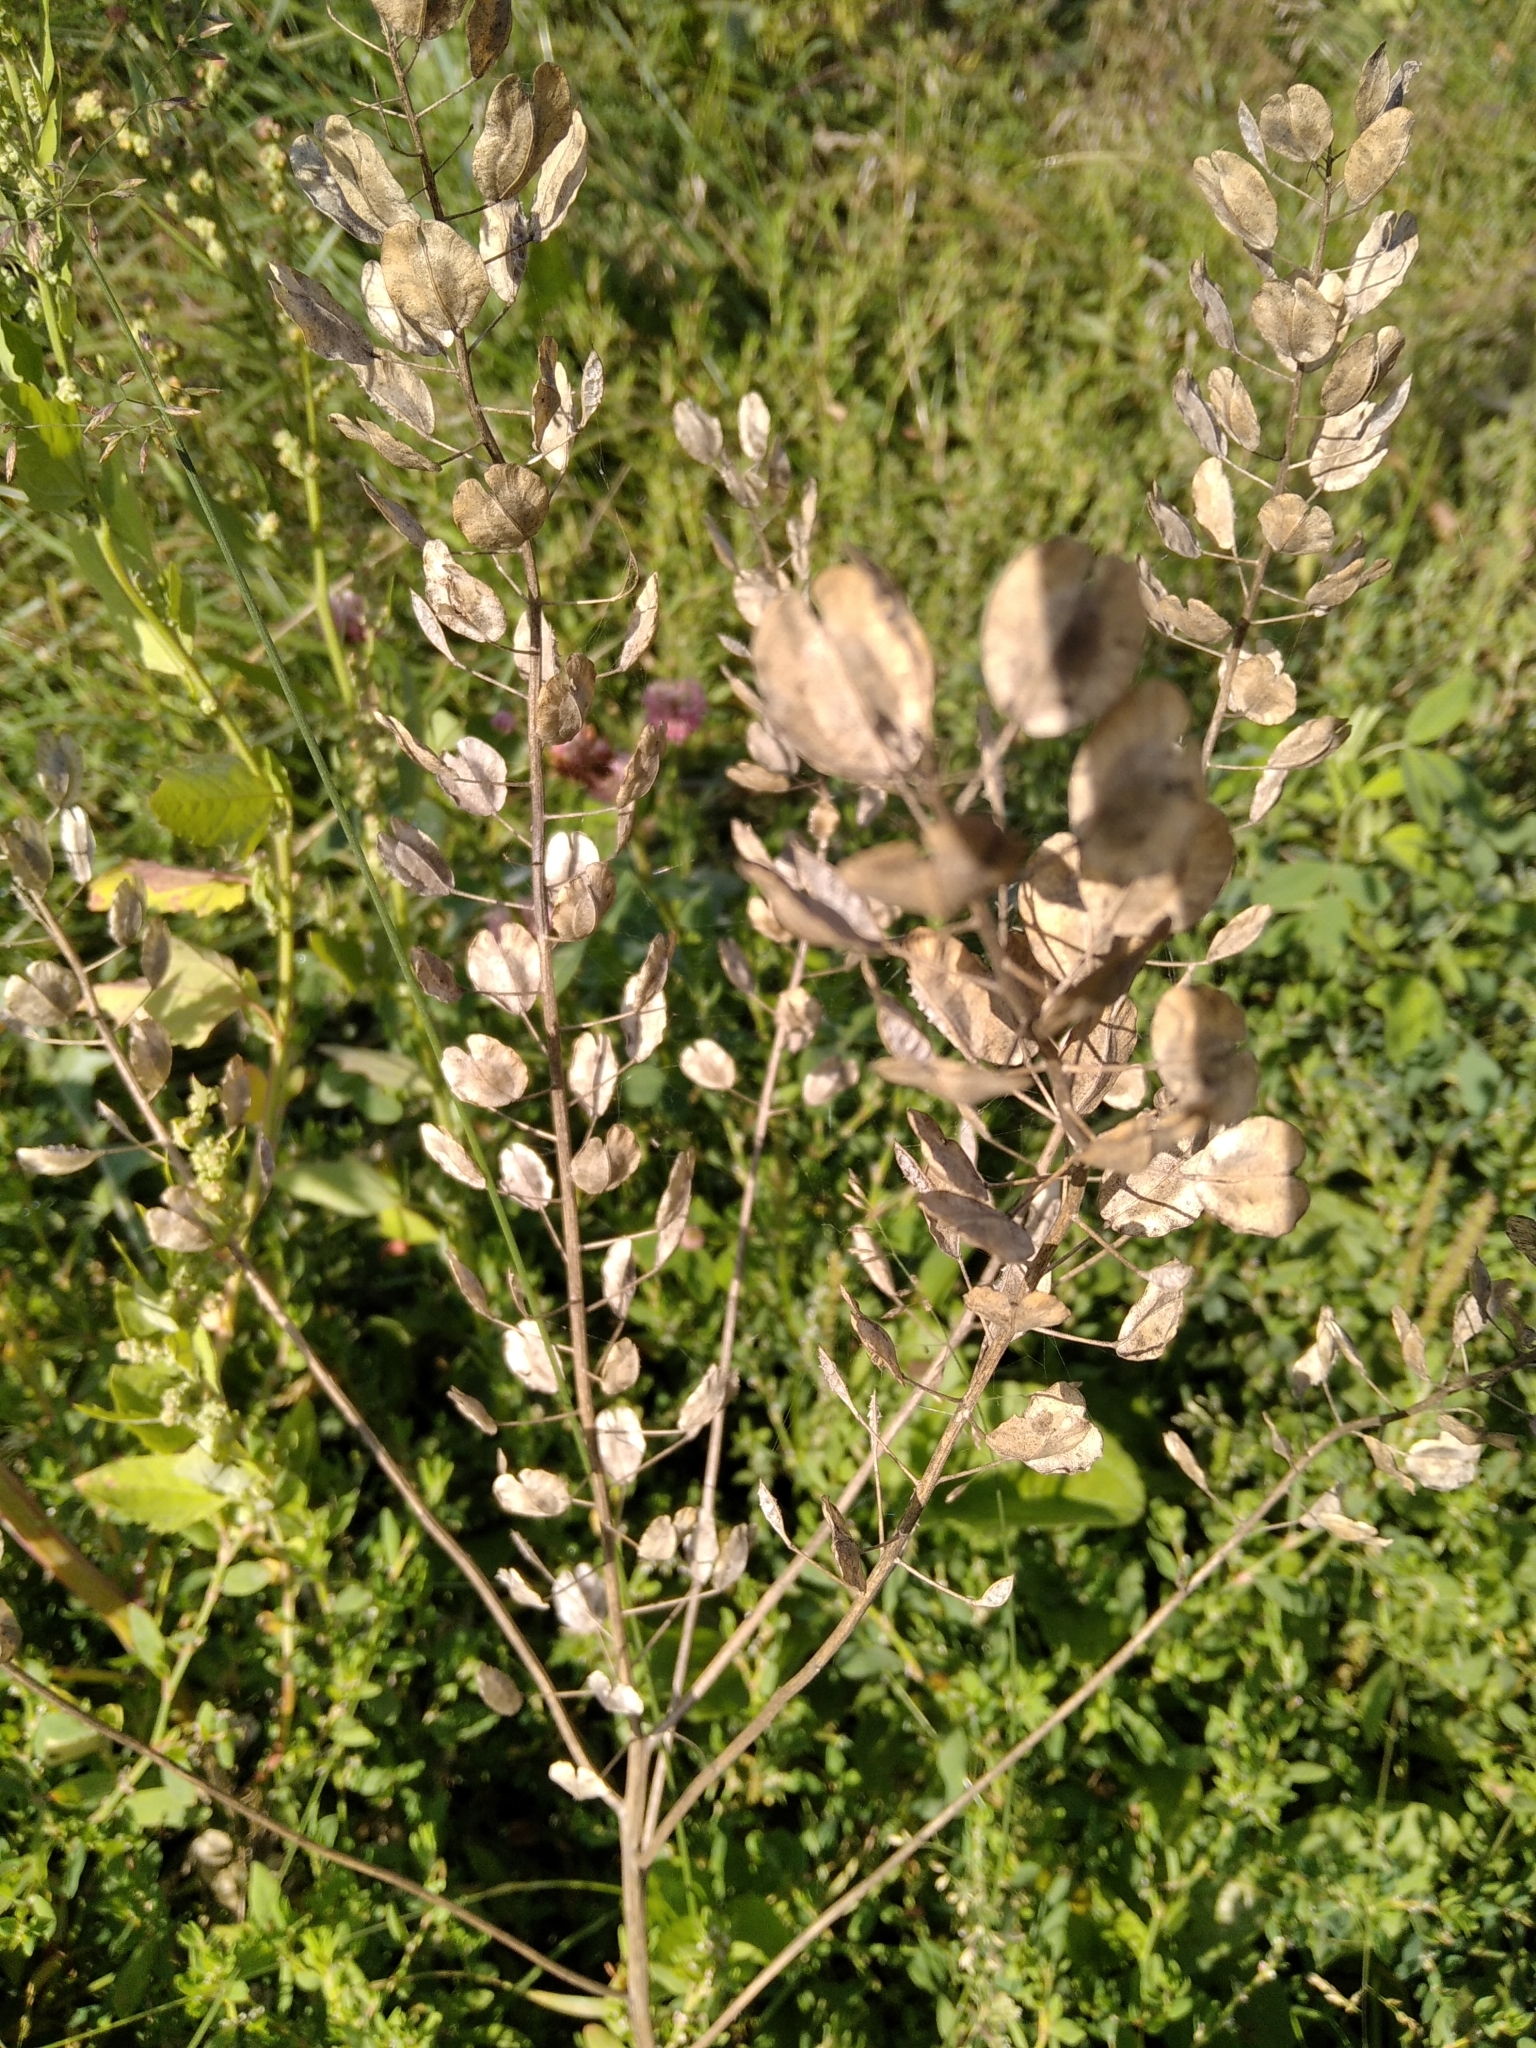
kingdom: Plantae
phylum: Tracheophyta
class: Magnoliopsida
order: Brassicales
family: Brassicaceae
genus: Thlaspi
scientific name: Thlaspi arvense
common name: Field pennycress
